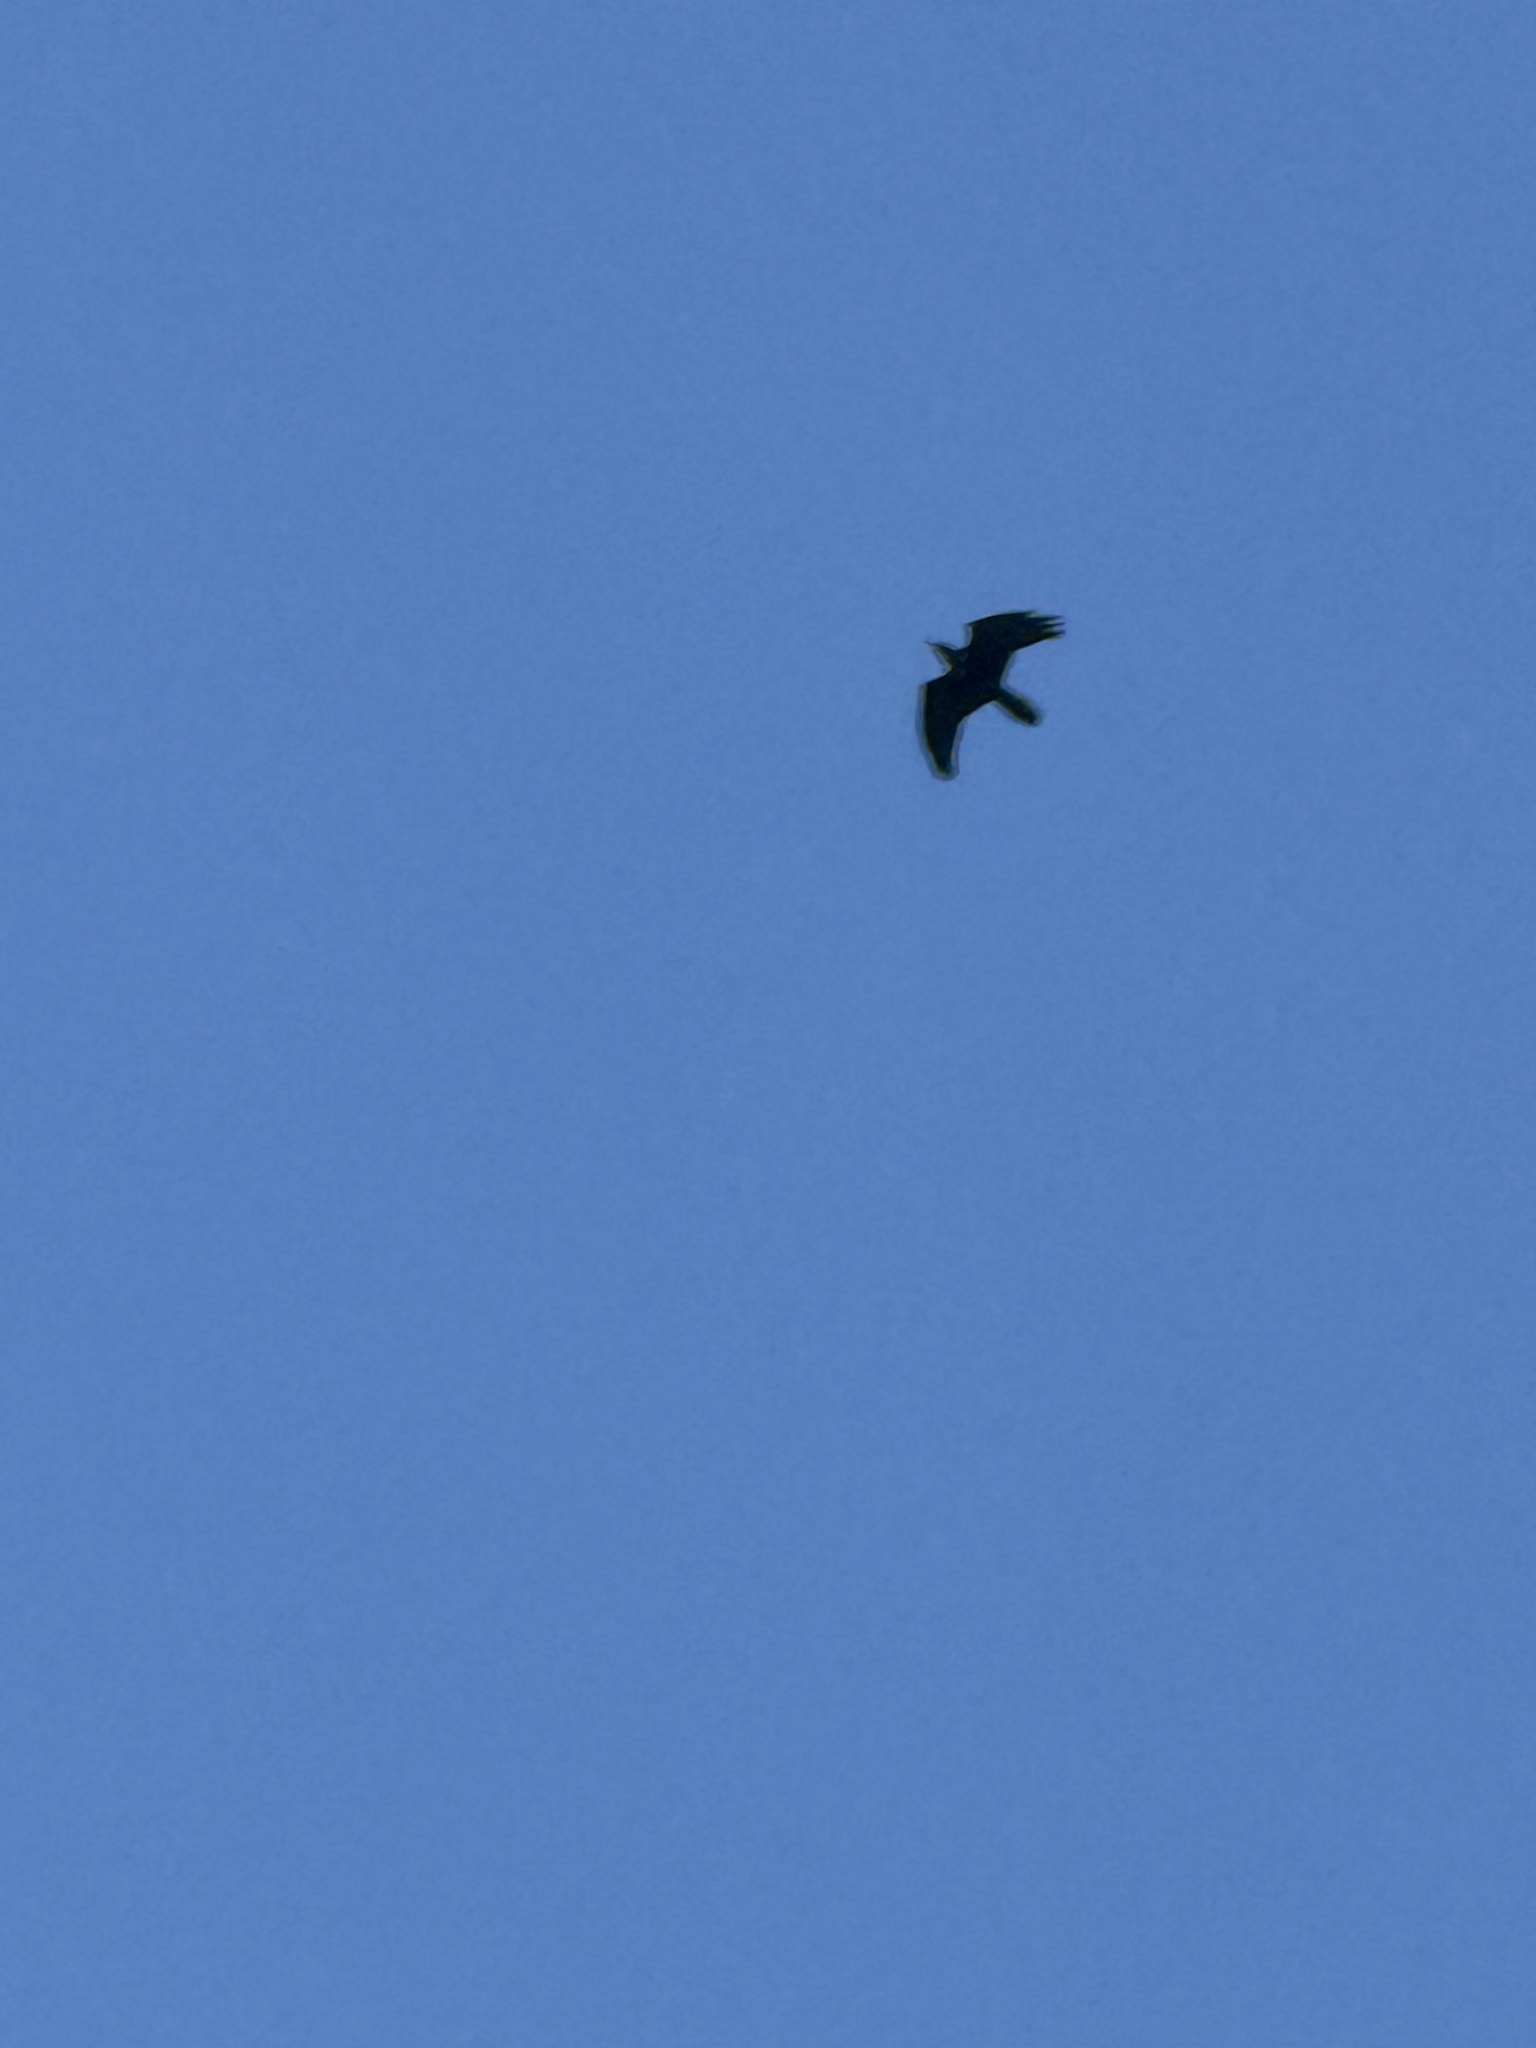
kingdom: Animalia
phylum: Chordata
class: Aves
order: Passeriformes
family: Corvidae
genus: Corvus
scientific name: Corvus brachyrhynchos
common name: American crow
